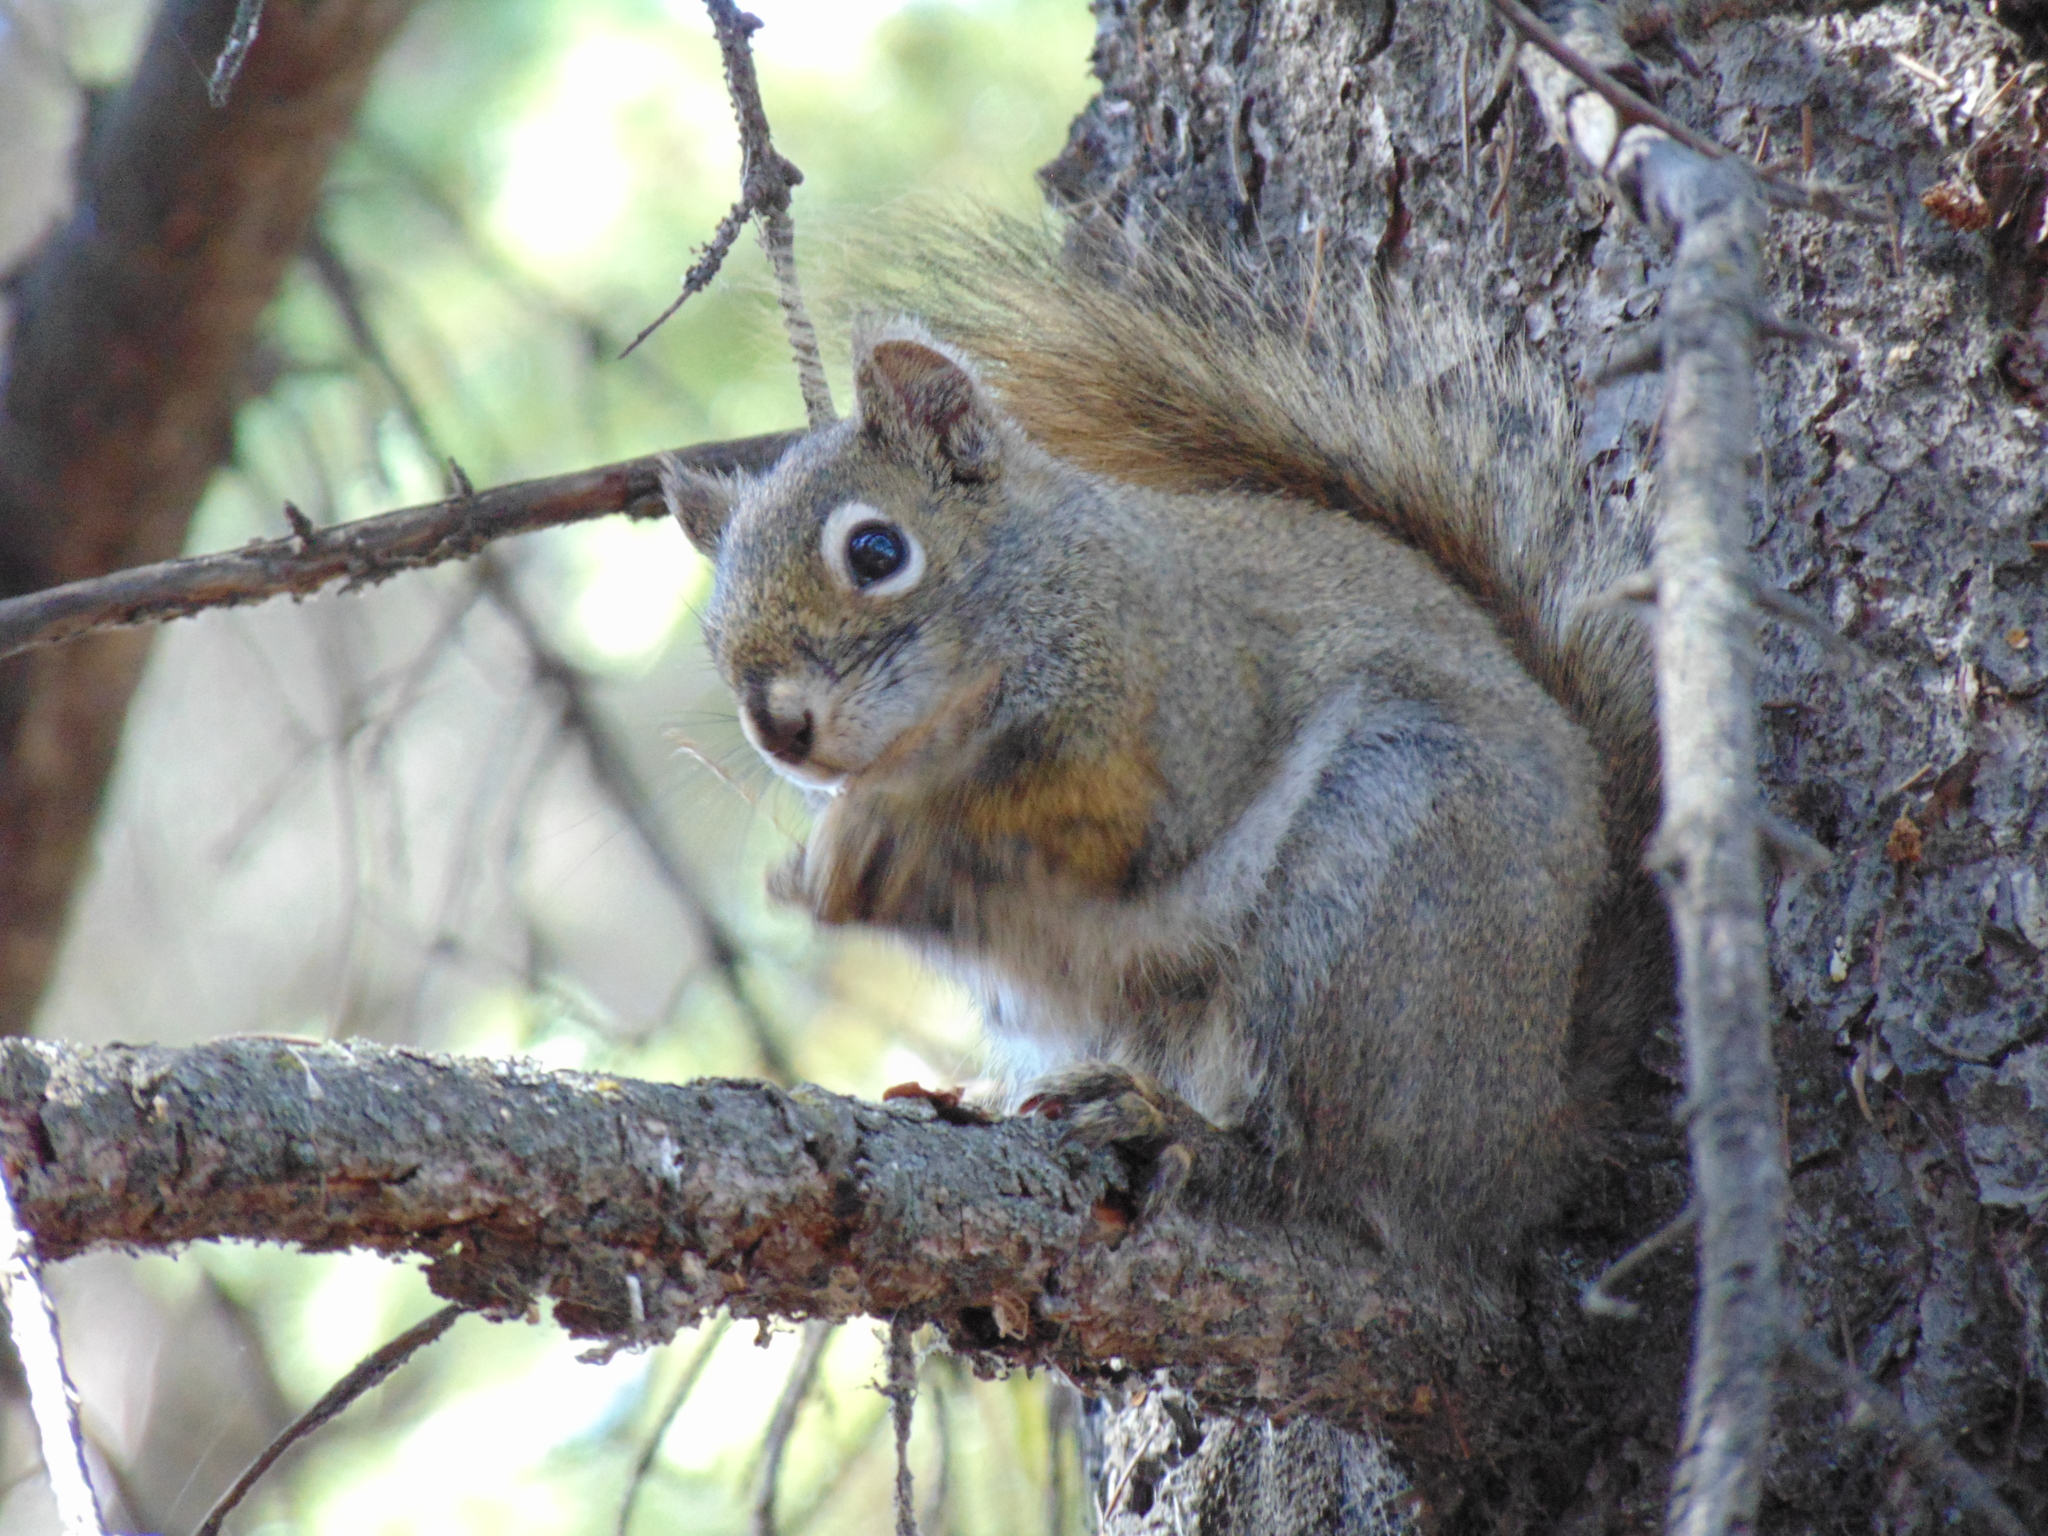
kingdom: Animalia
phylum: Chordata
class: Mammalia
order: Rodentia
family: Sciuridae
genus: Tamiasciurus
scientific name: Tamiasciurus hudsonicus
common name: Red squirrel
